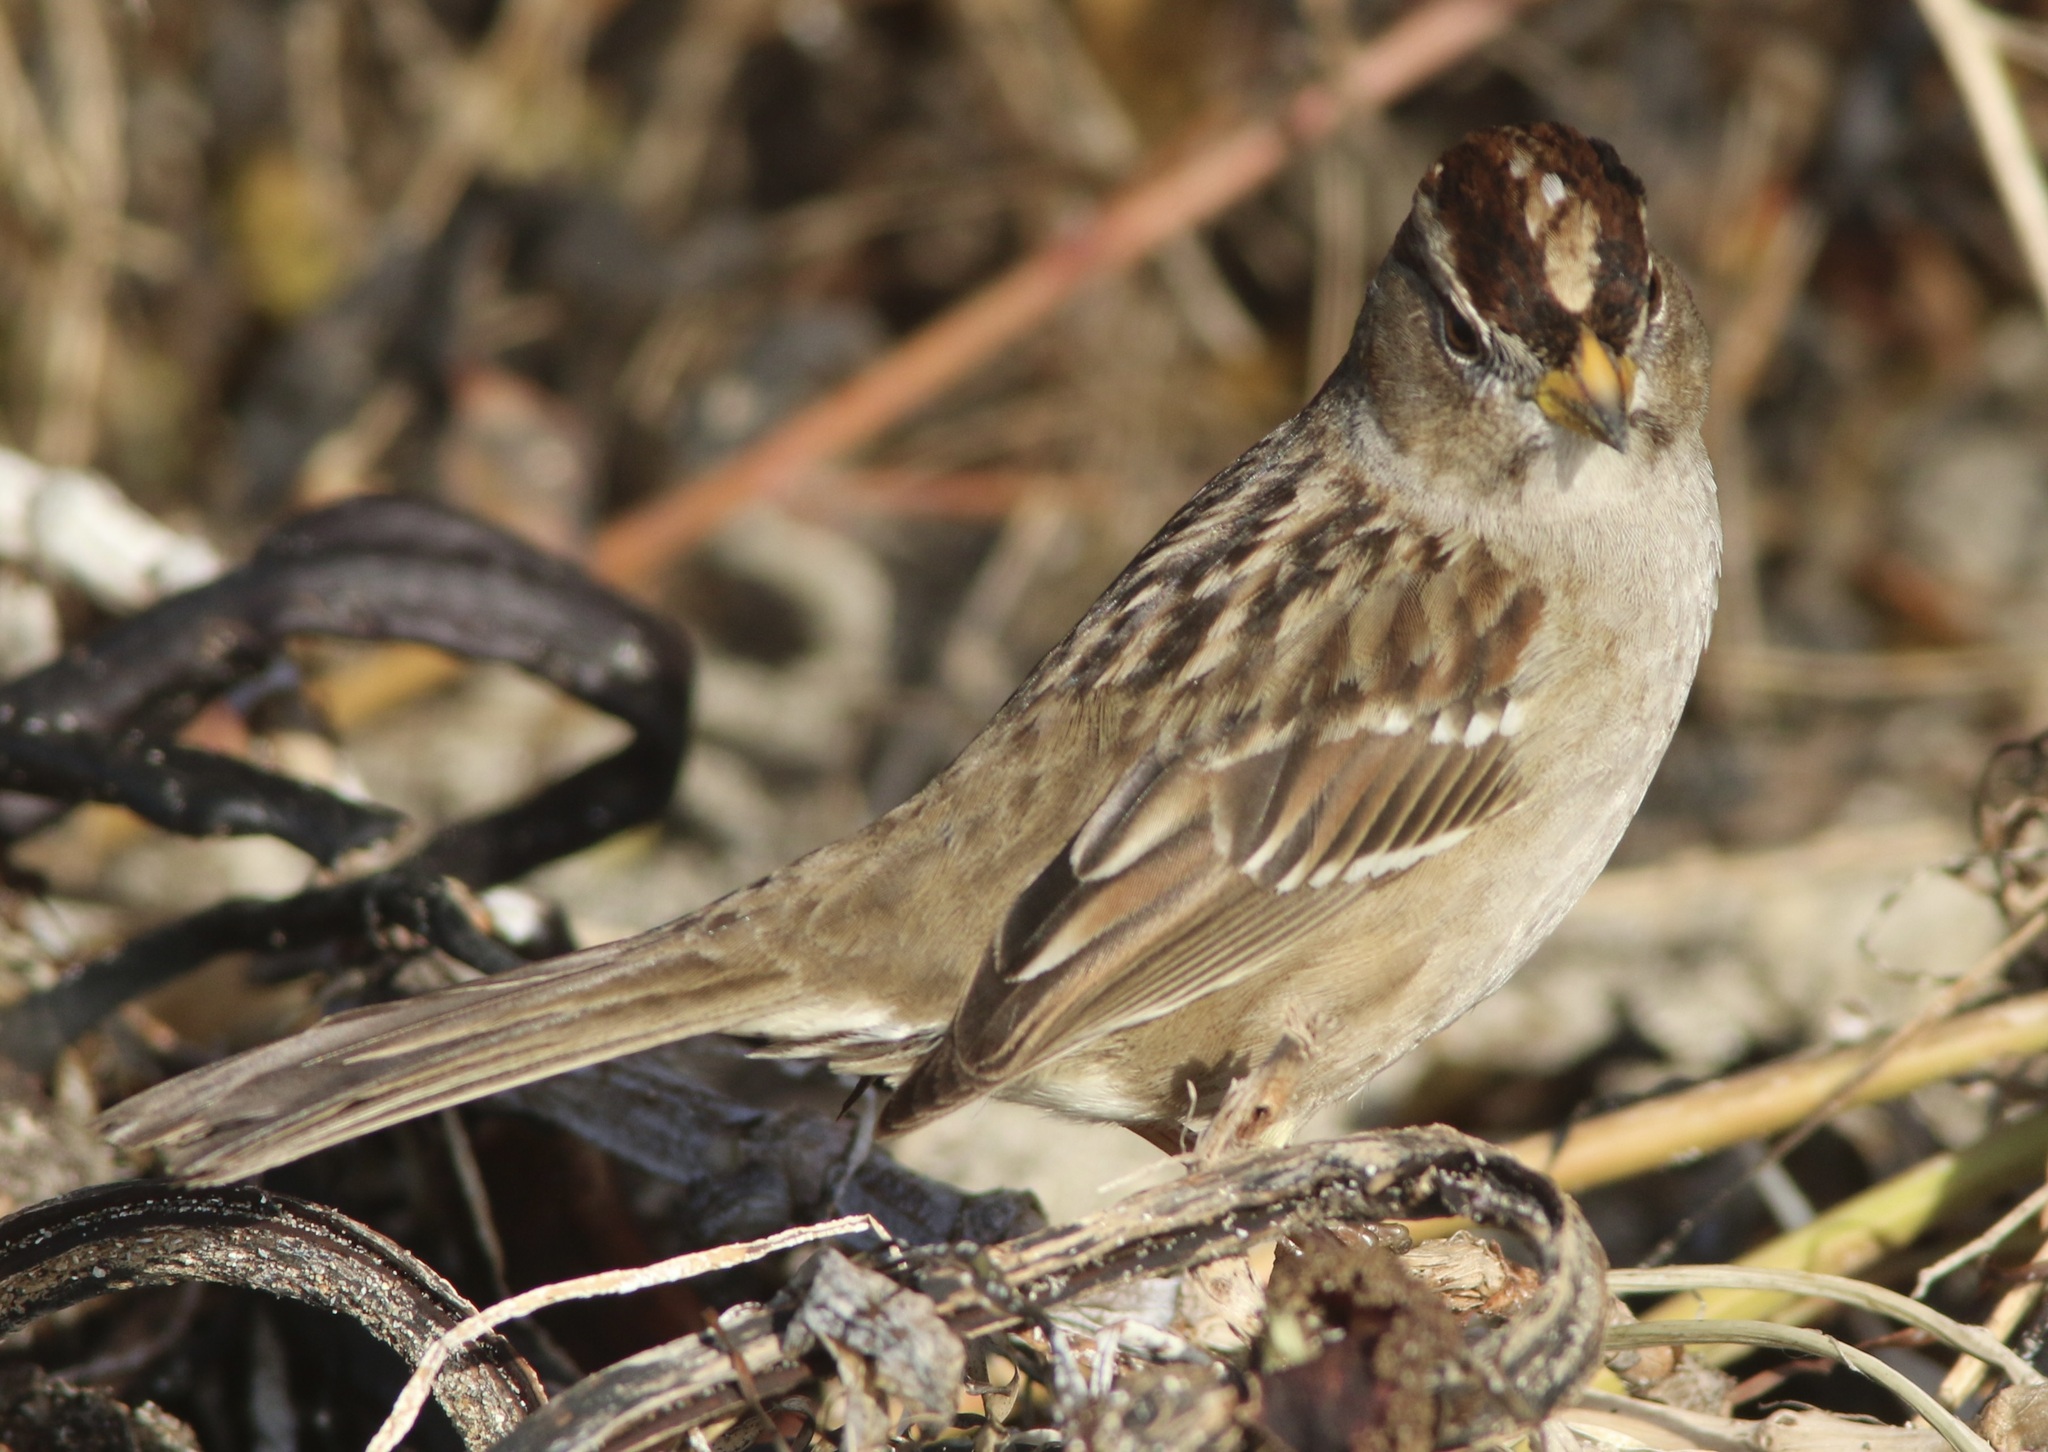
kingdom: Animalia
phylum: Chordata
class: Aves
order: Passeriformes
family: Passerellidae
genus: Zonotrichia
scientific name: Zonotrichia leucophrys
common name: White-crowned sparrow
